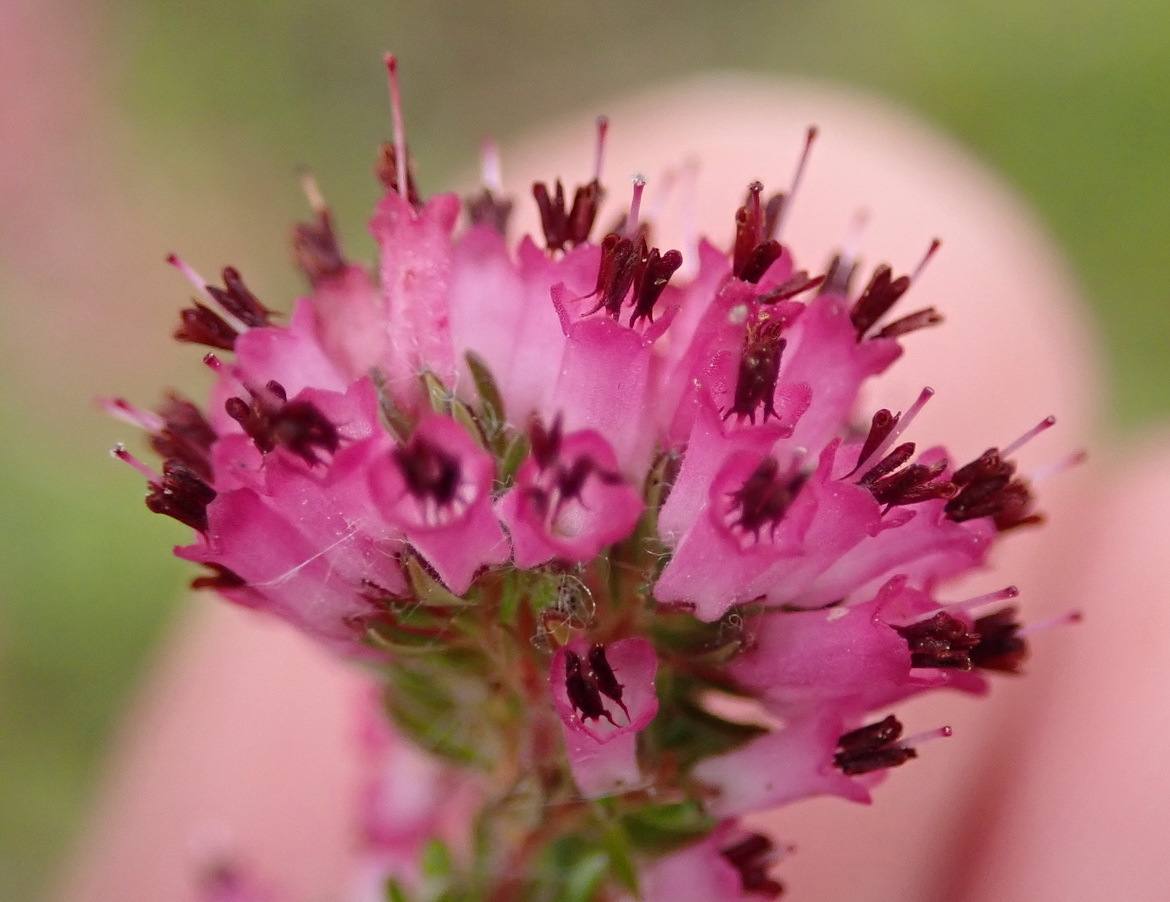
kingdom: Plantae
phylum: Tracheophyta
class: Magnoliopsida
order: Ericales
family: Ericaceae
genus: Erica
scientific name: Erica longimontana
